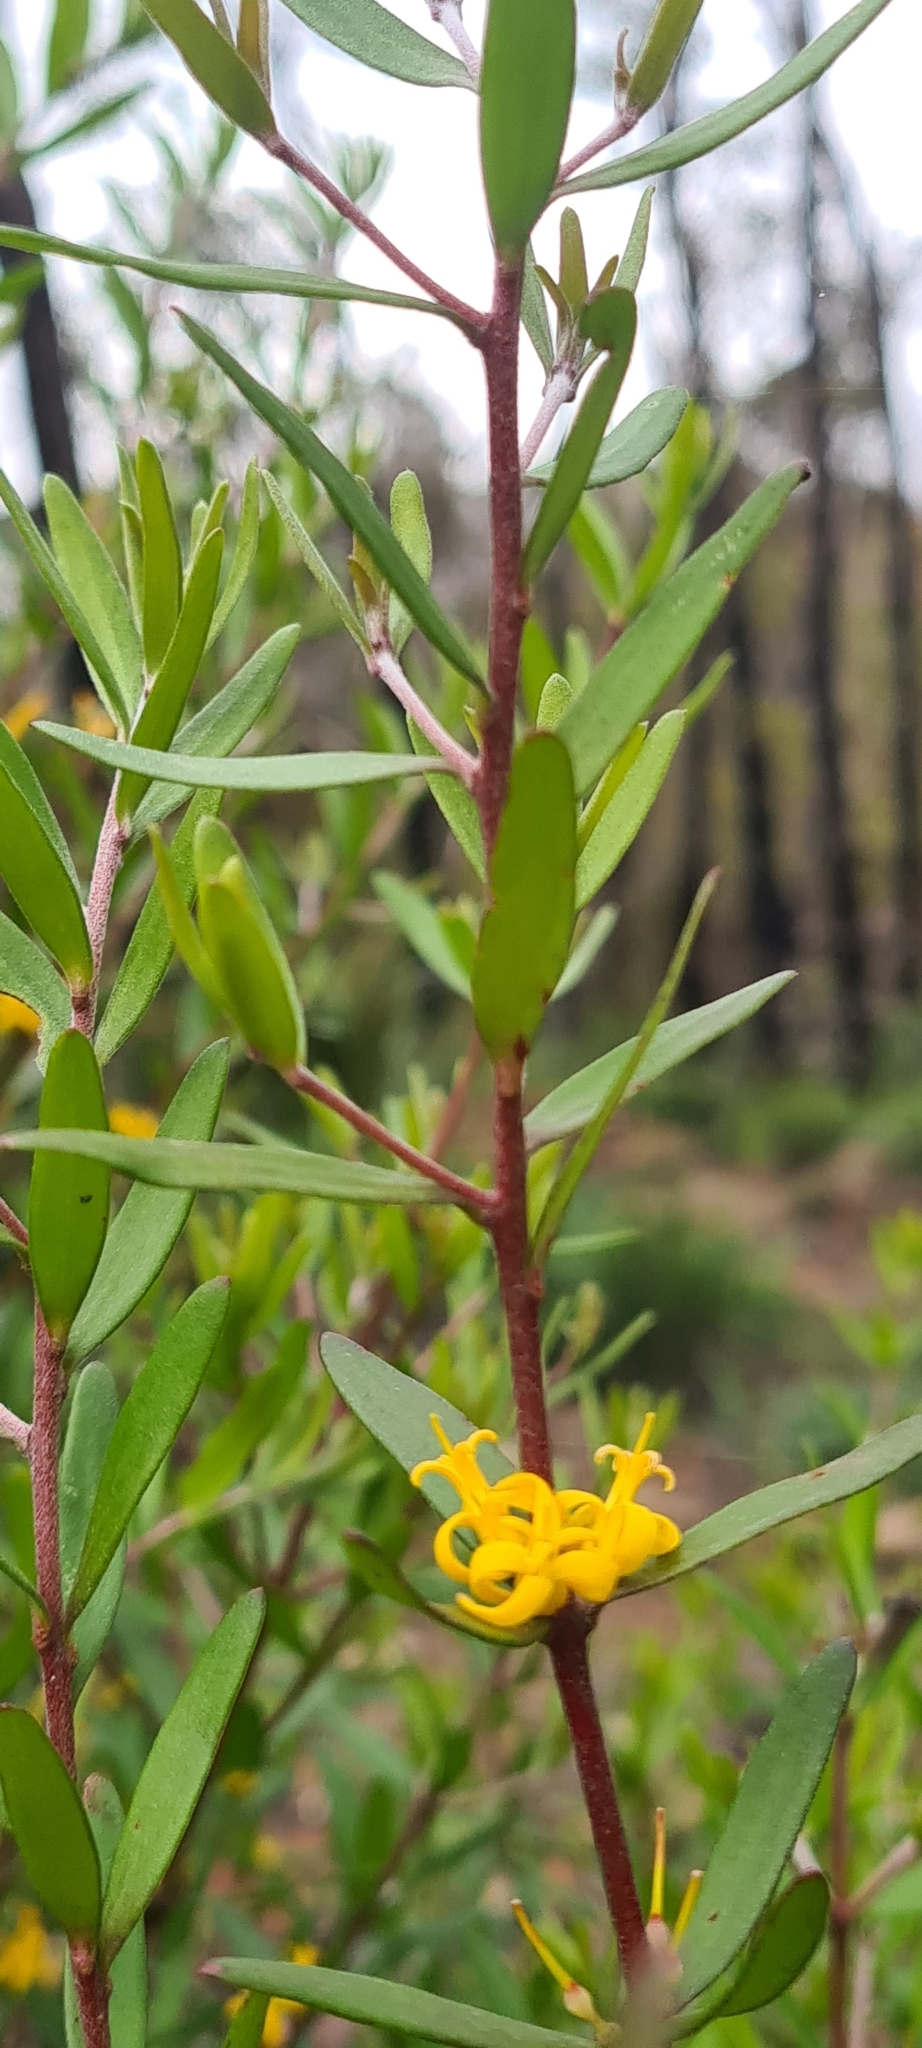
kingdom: Plantae
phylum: Tracheophyta
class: Magnoliopsida
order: Proteales
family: Proteaceae
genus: Persoonia
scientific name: Persoonia lanceolata
